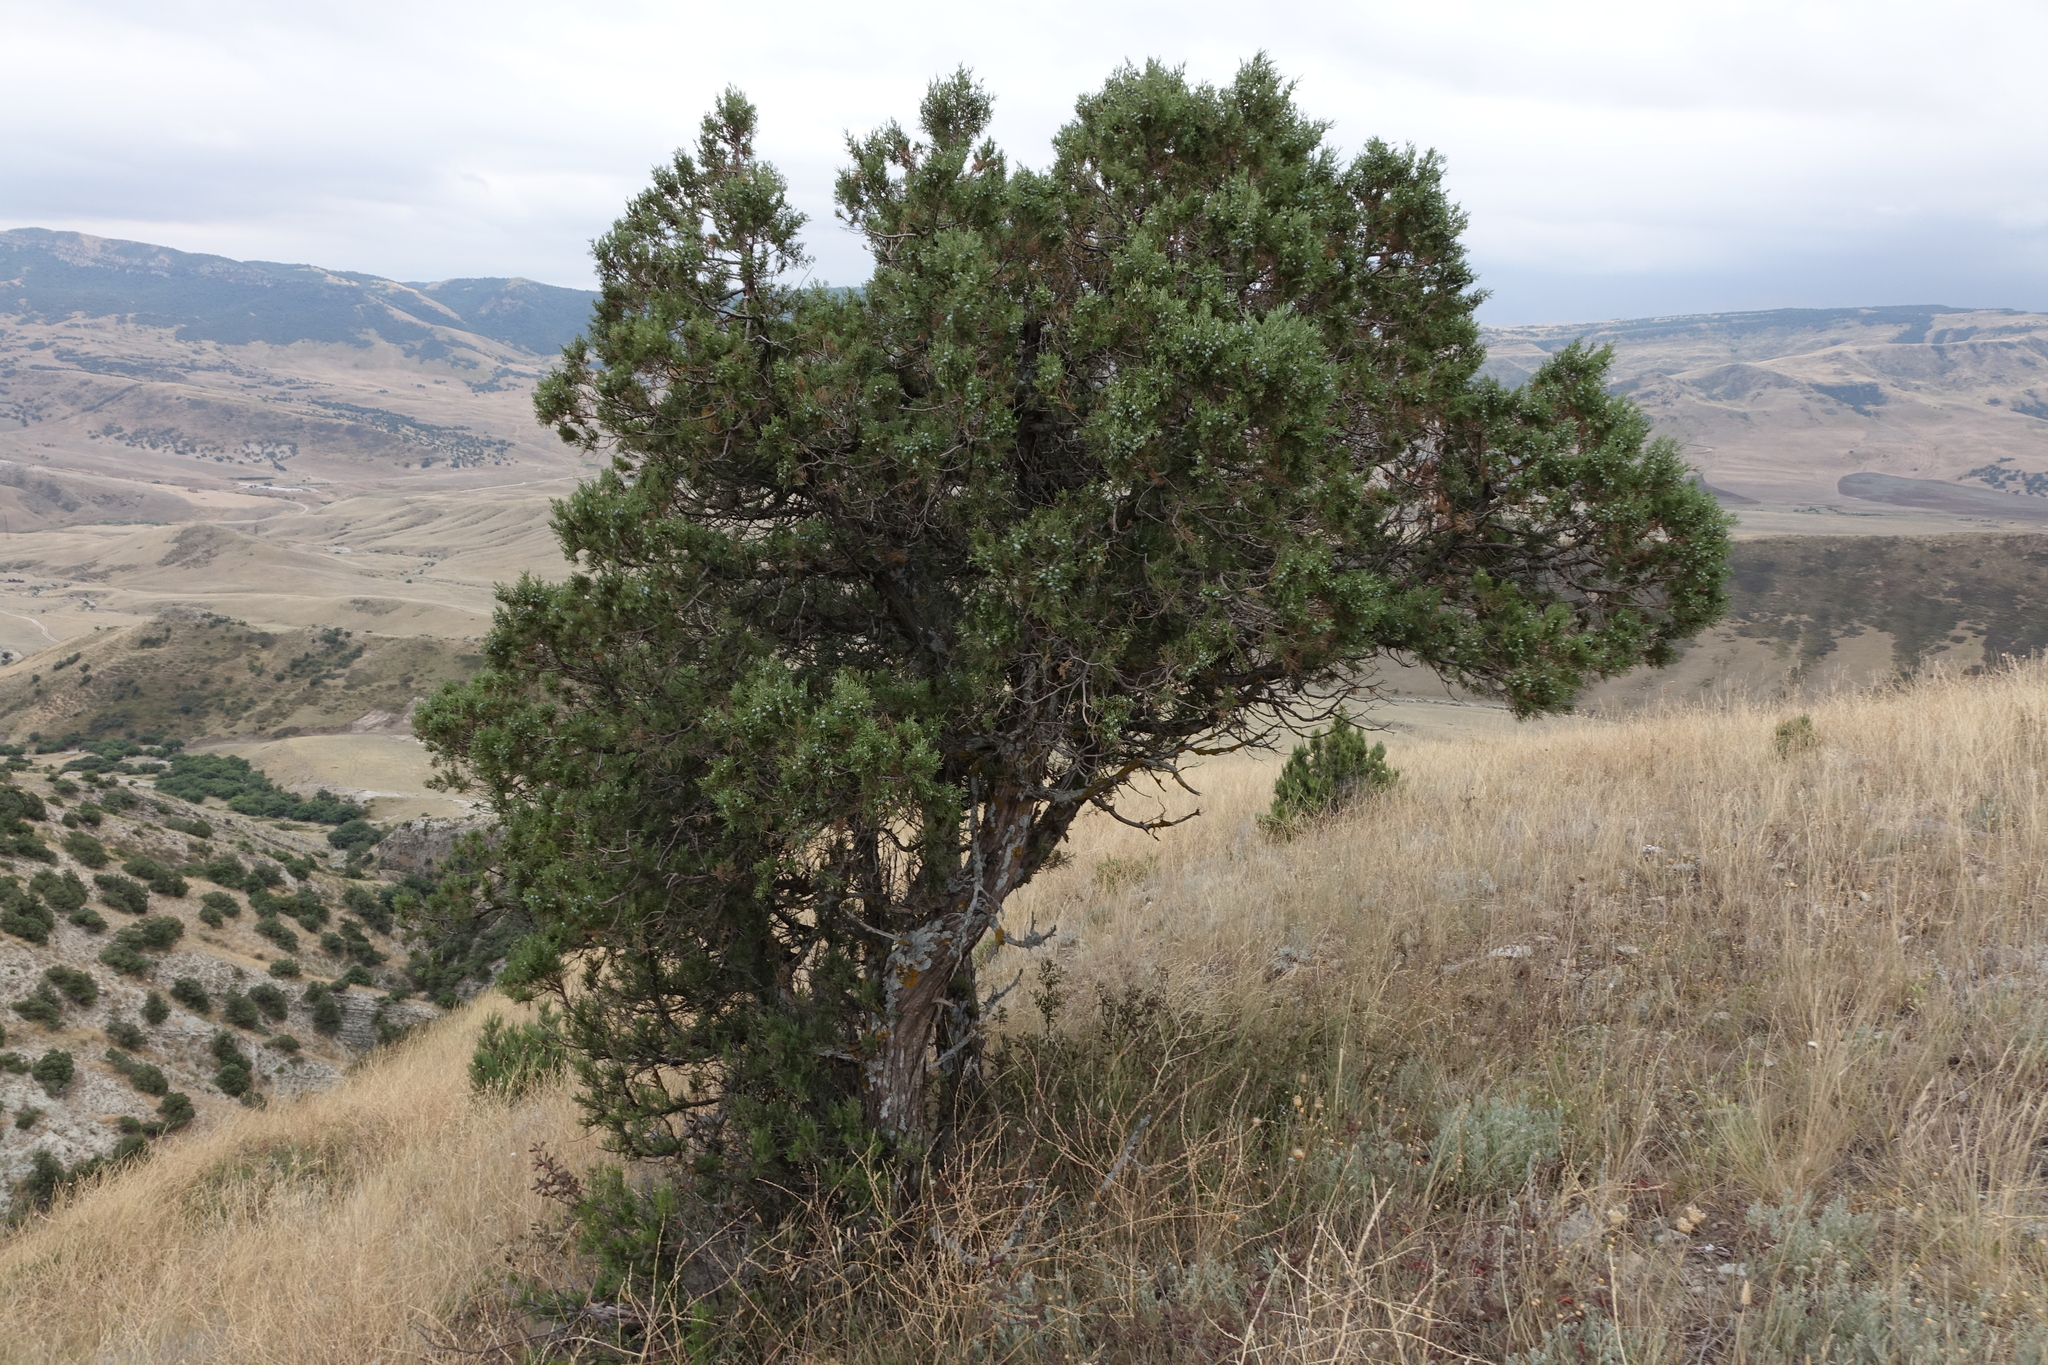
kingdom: Plantae
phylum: Tracheophyta
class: Pinopsida
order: Pinales
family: Cupressaceae
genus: Juniperus
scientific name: Juniperus excelsa
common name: Crimean juniper
